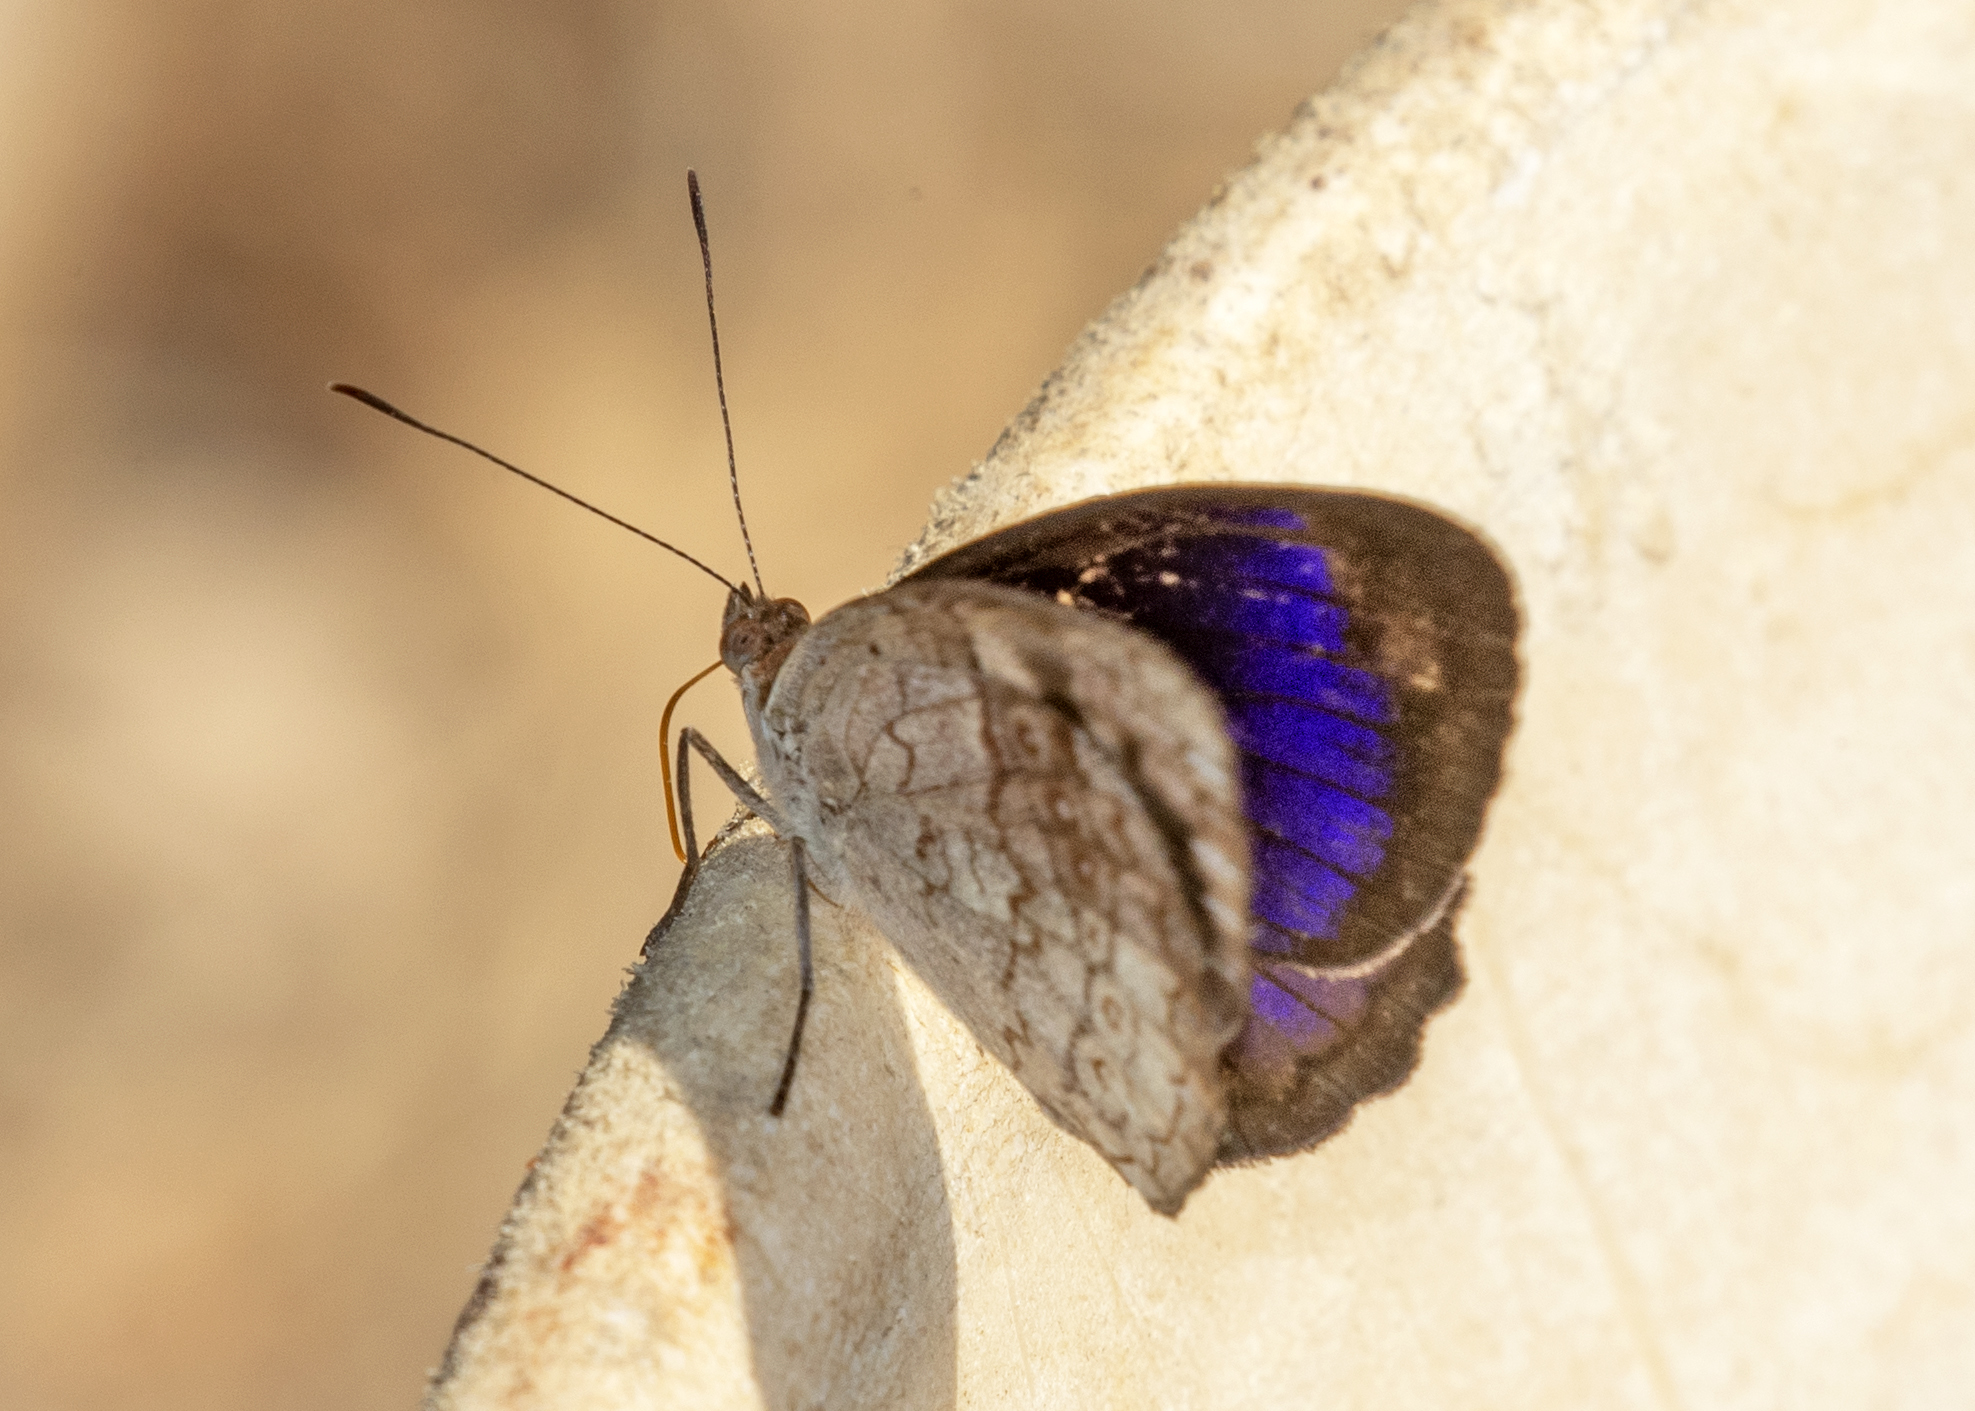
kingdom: Animalia
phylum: Arthropoda
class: Insecta
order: Lepidoptera
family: Nymphalidae
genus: Eunica
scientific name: Eunica marsolia
